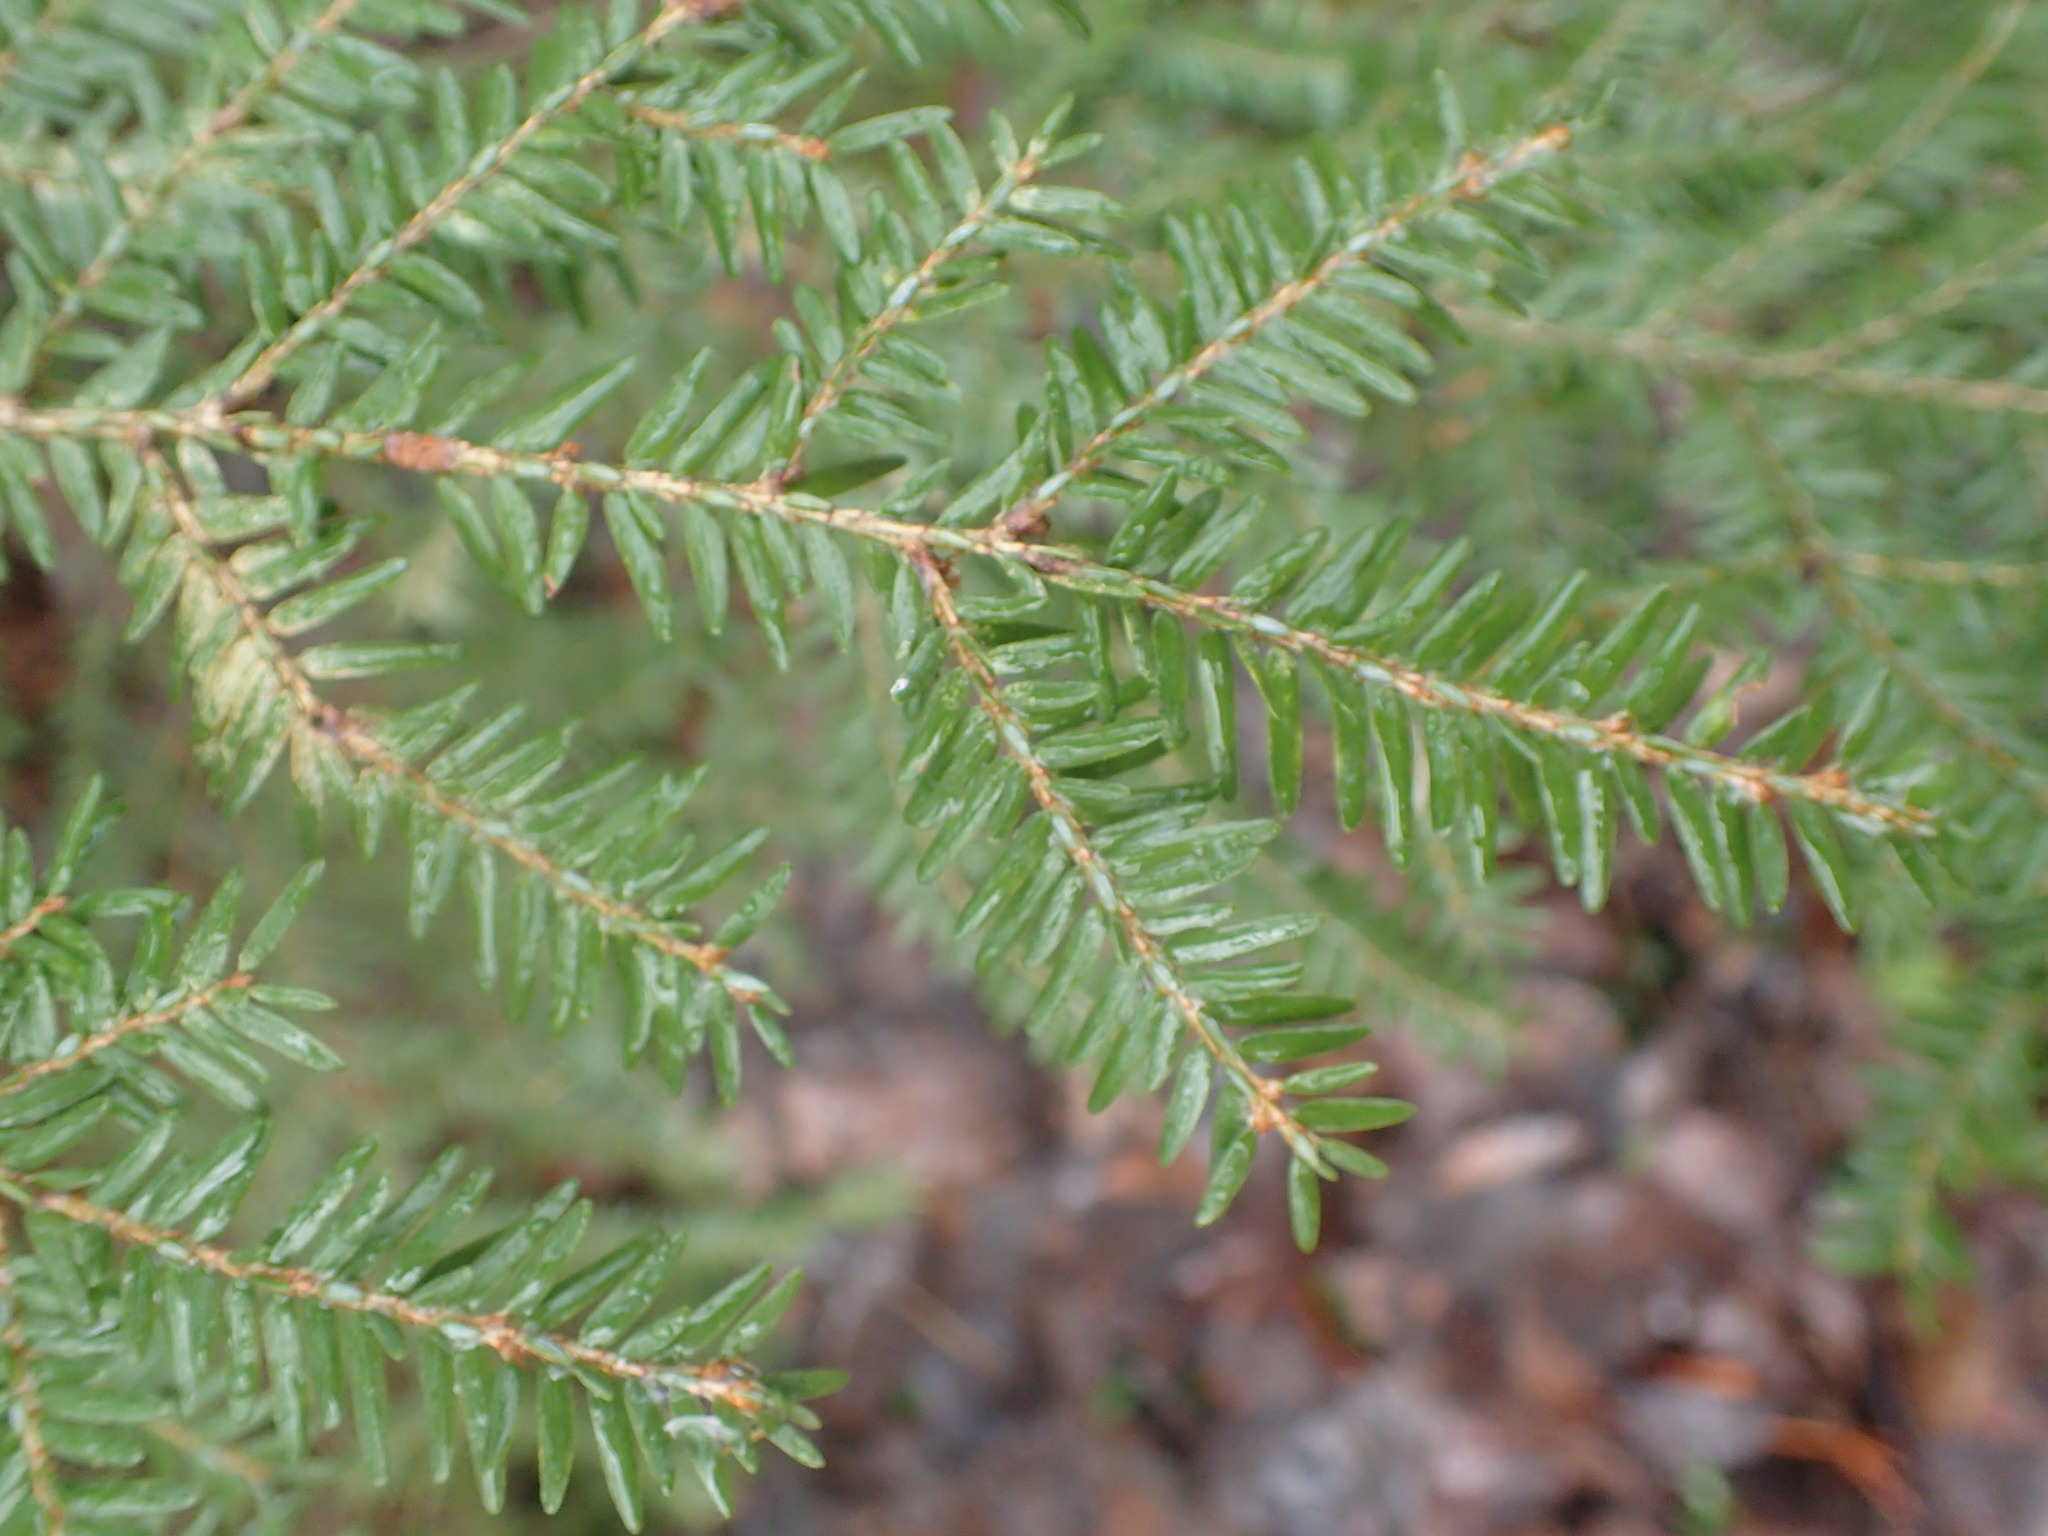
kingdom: Plantae
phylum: Tracheophyta
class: Pinopsida
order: Pinales
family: Pinaceae
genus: Tsuga
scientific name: Tsuga canadensis
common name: Eastern hemlock
